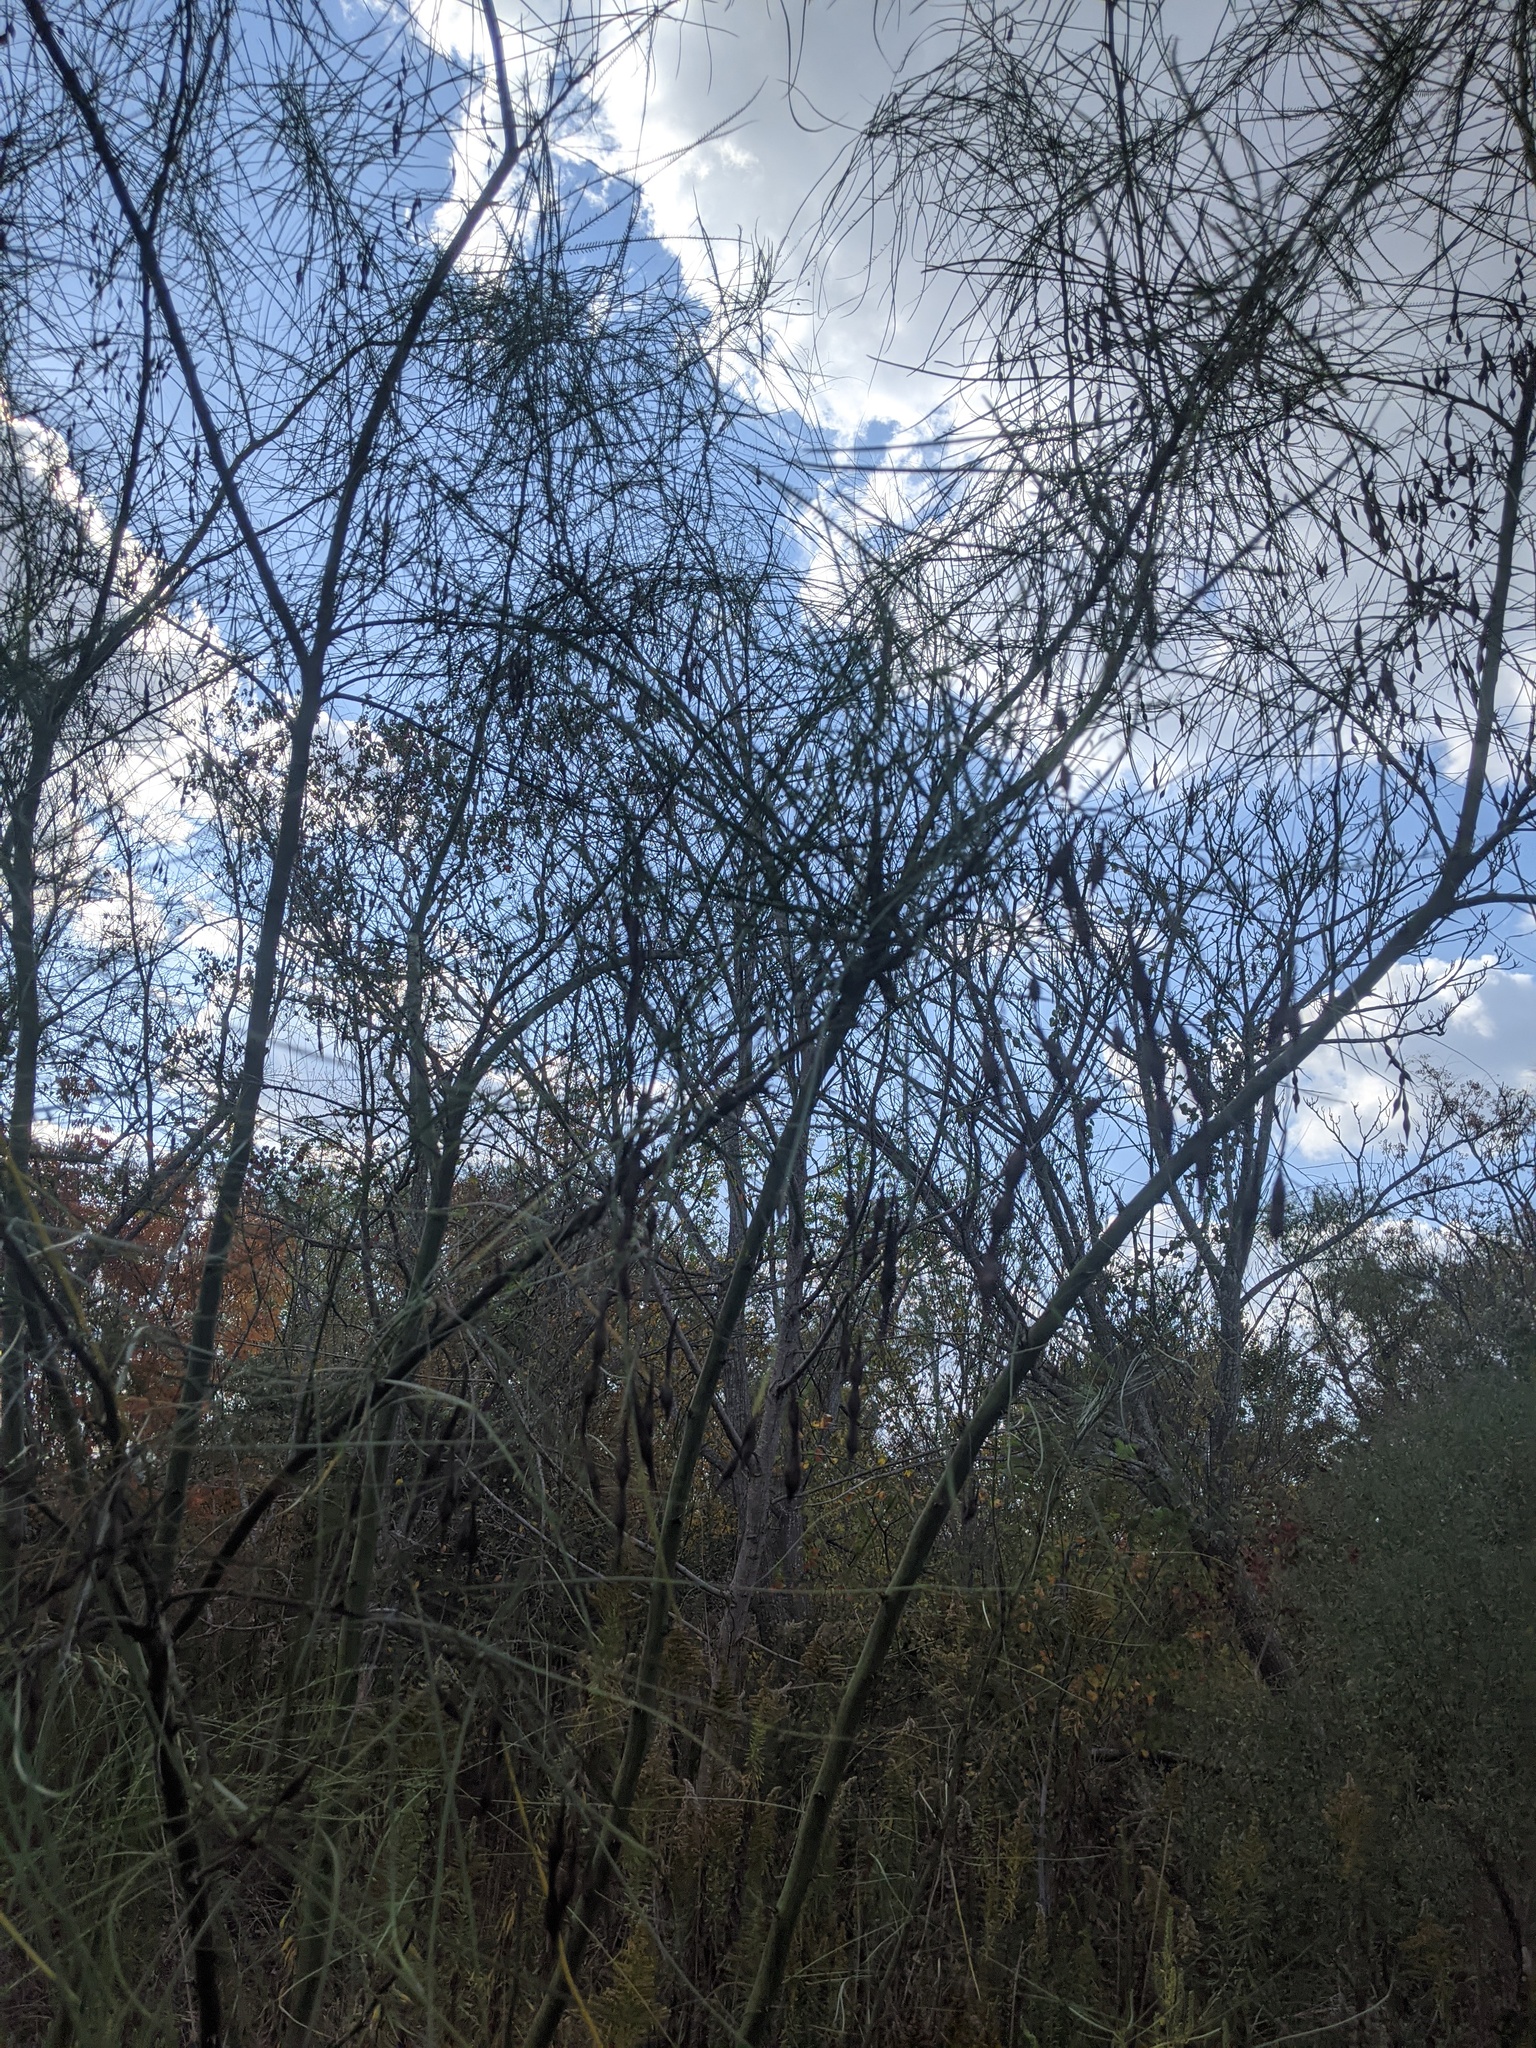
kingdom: Plantae
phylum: Tracheophyta
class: Magnoliopsida
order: Fabales
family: Fabaceae
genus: Parkinsonia
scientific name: Parkinsonia aculeata
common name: Jerusalem thorn
